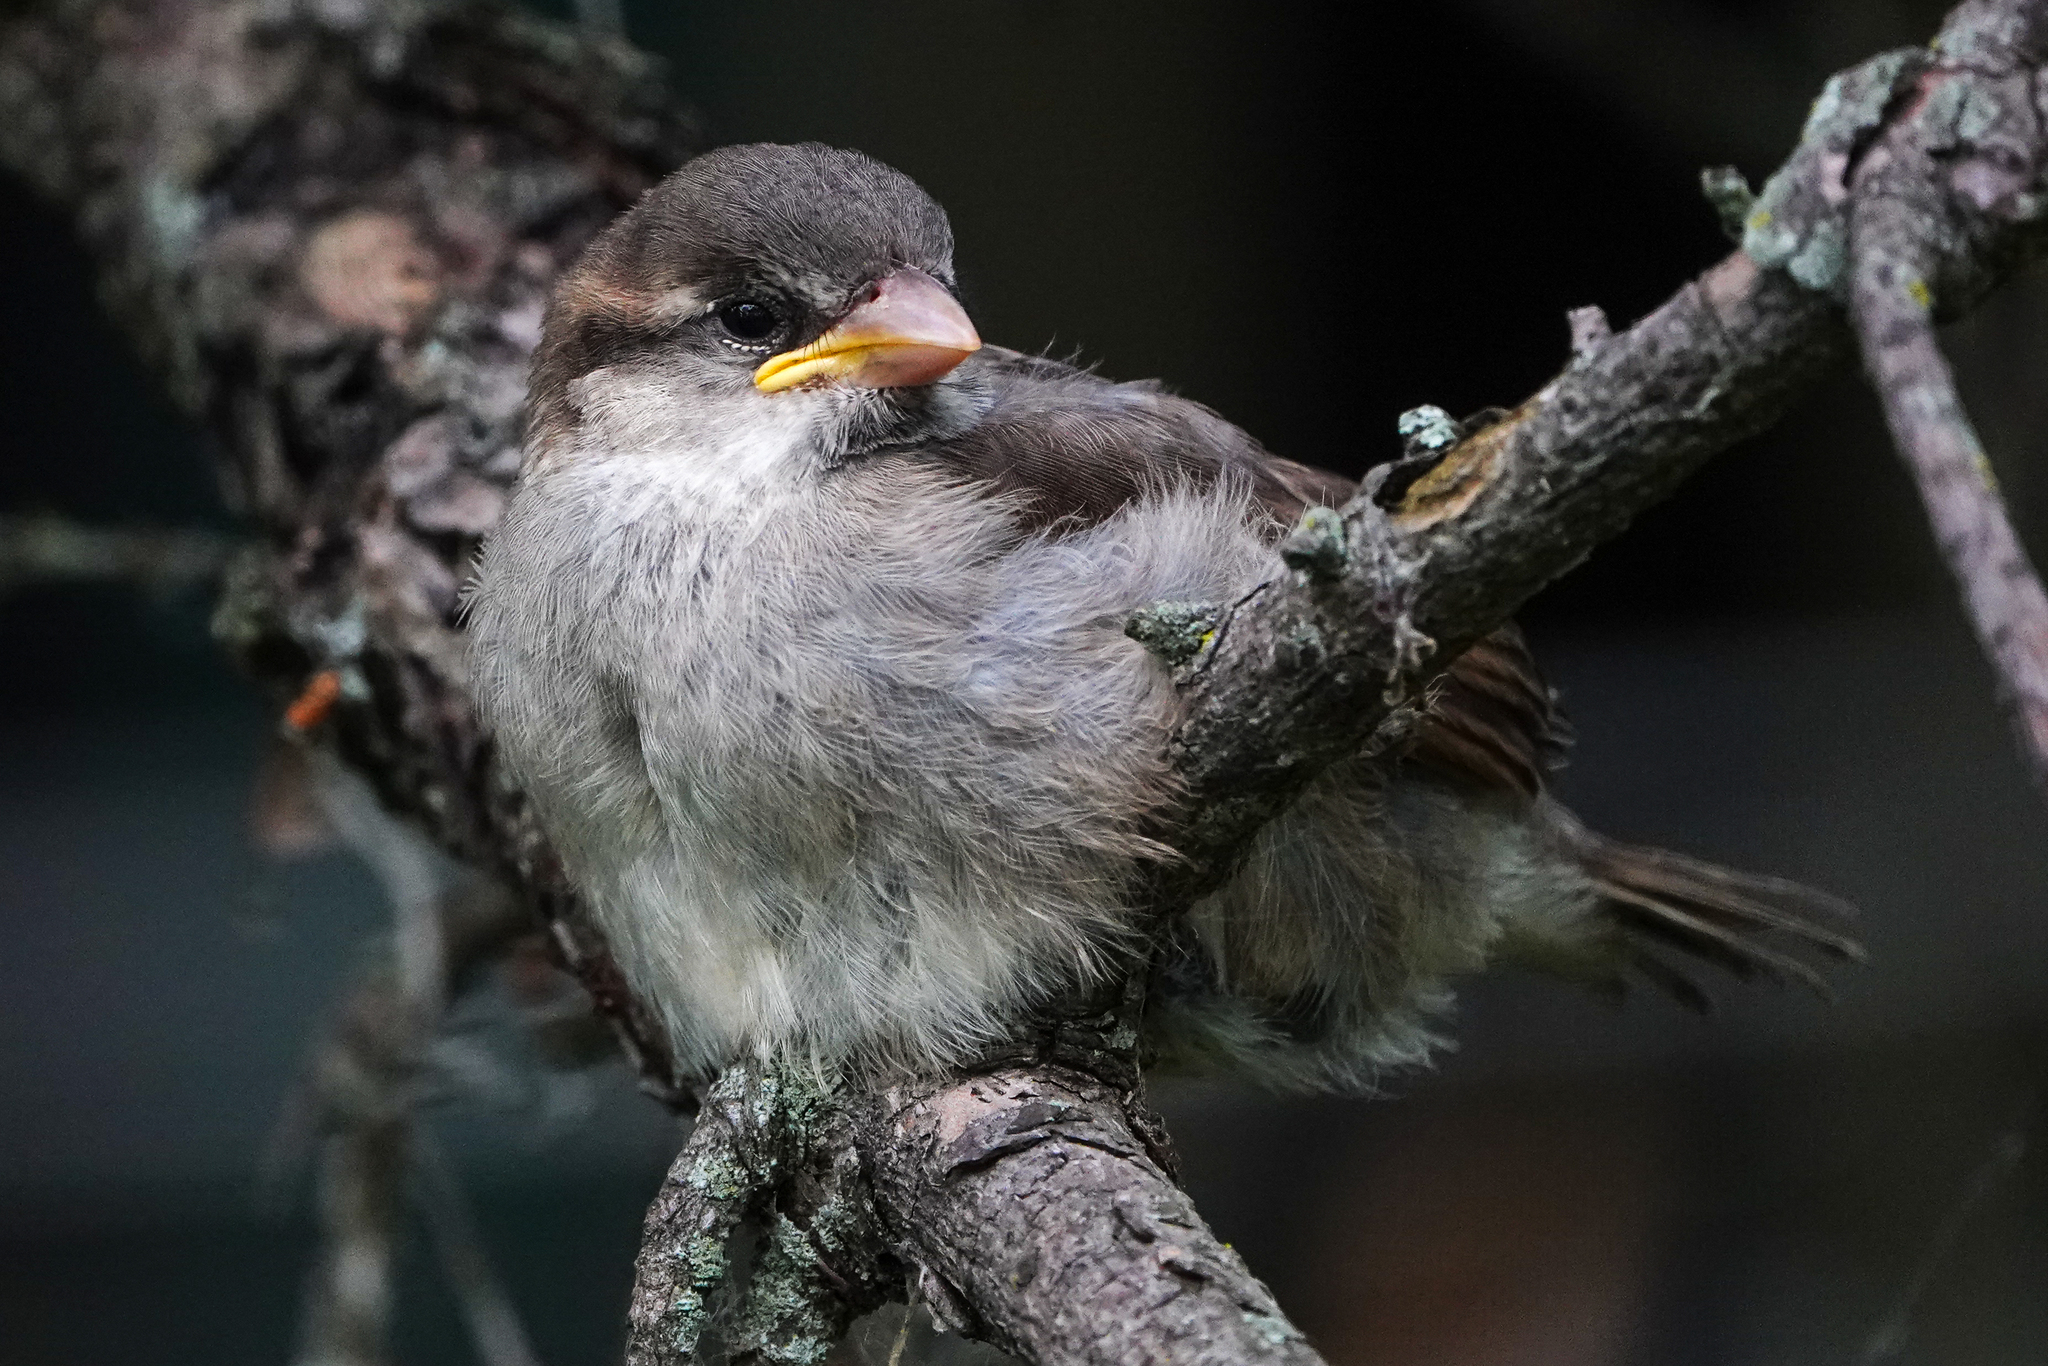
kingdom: Animalia
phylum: Chordata
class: Aves
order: Passeriformes
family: Passeridae
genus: Passer
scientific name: Passer domesticus
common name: House sparrow
